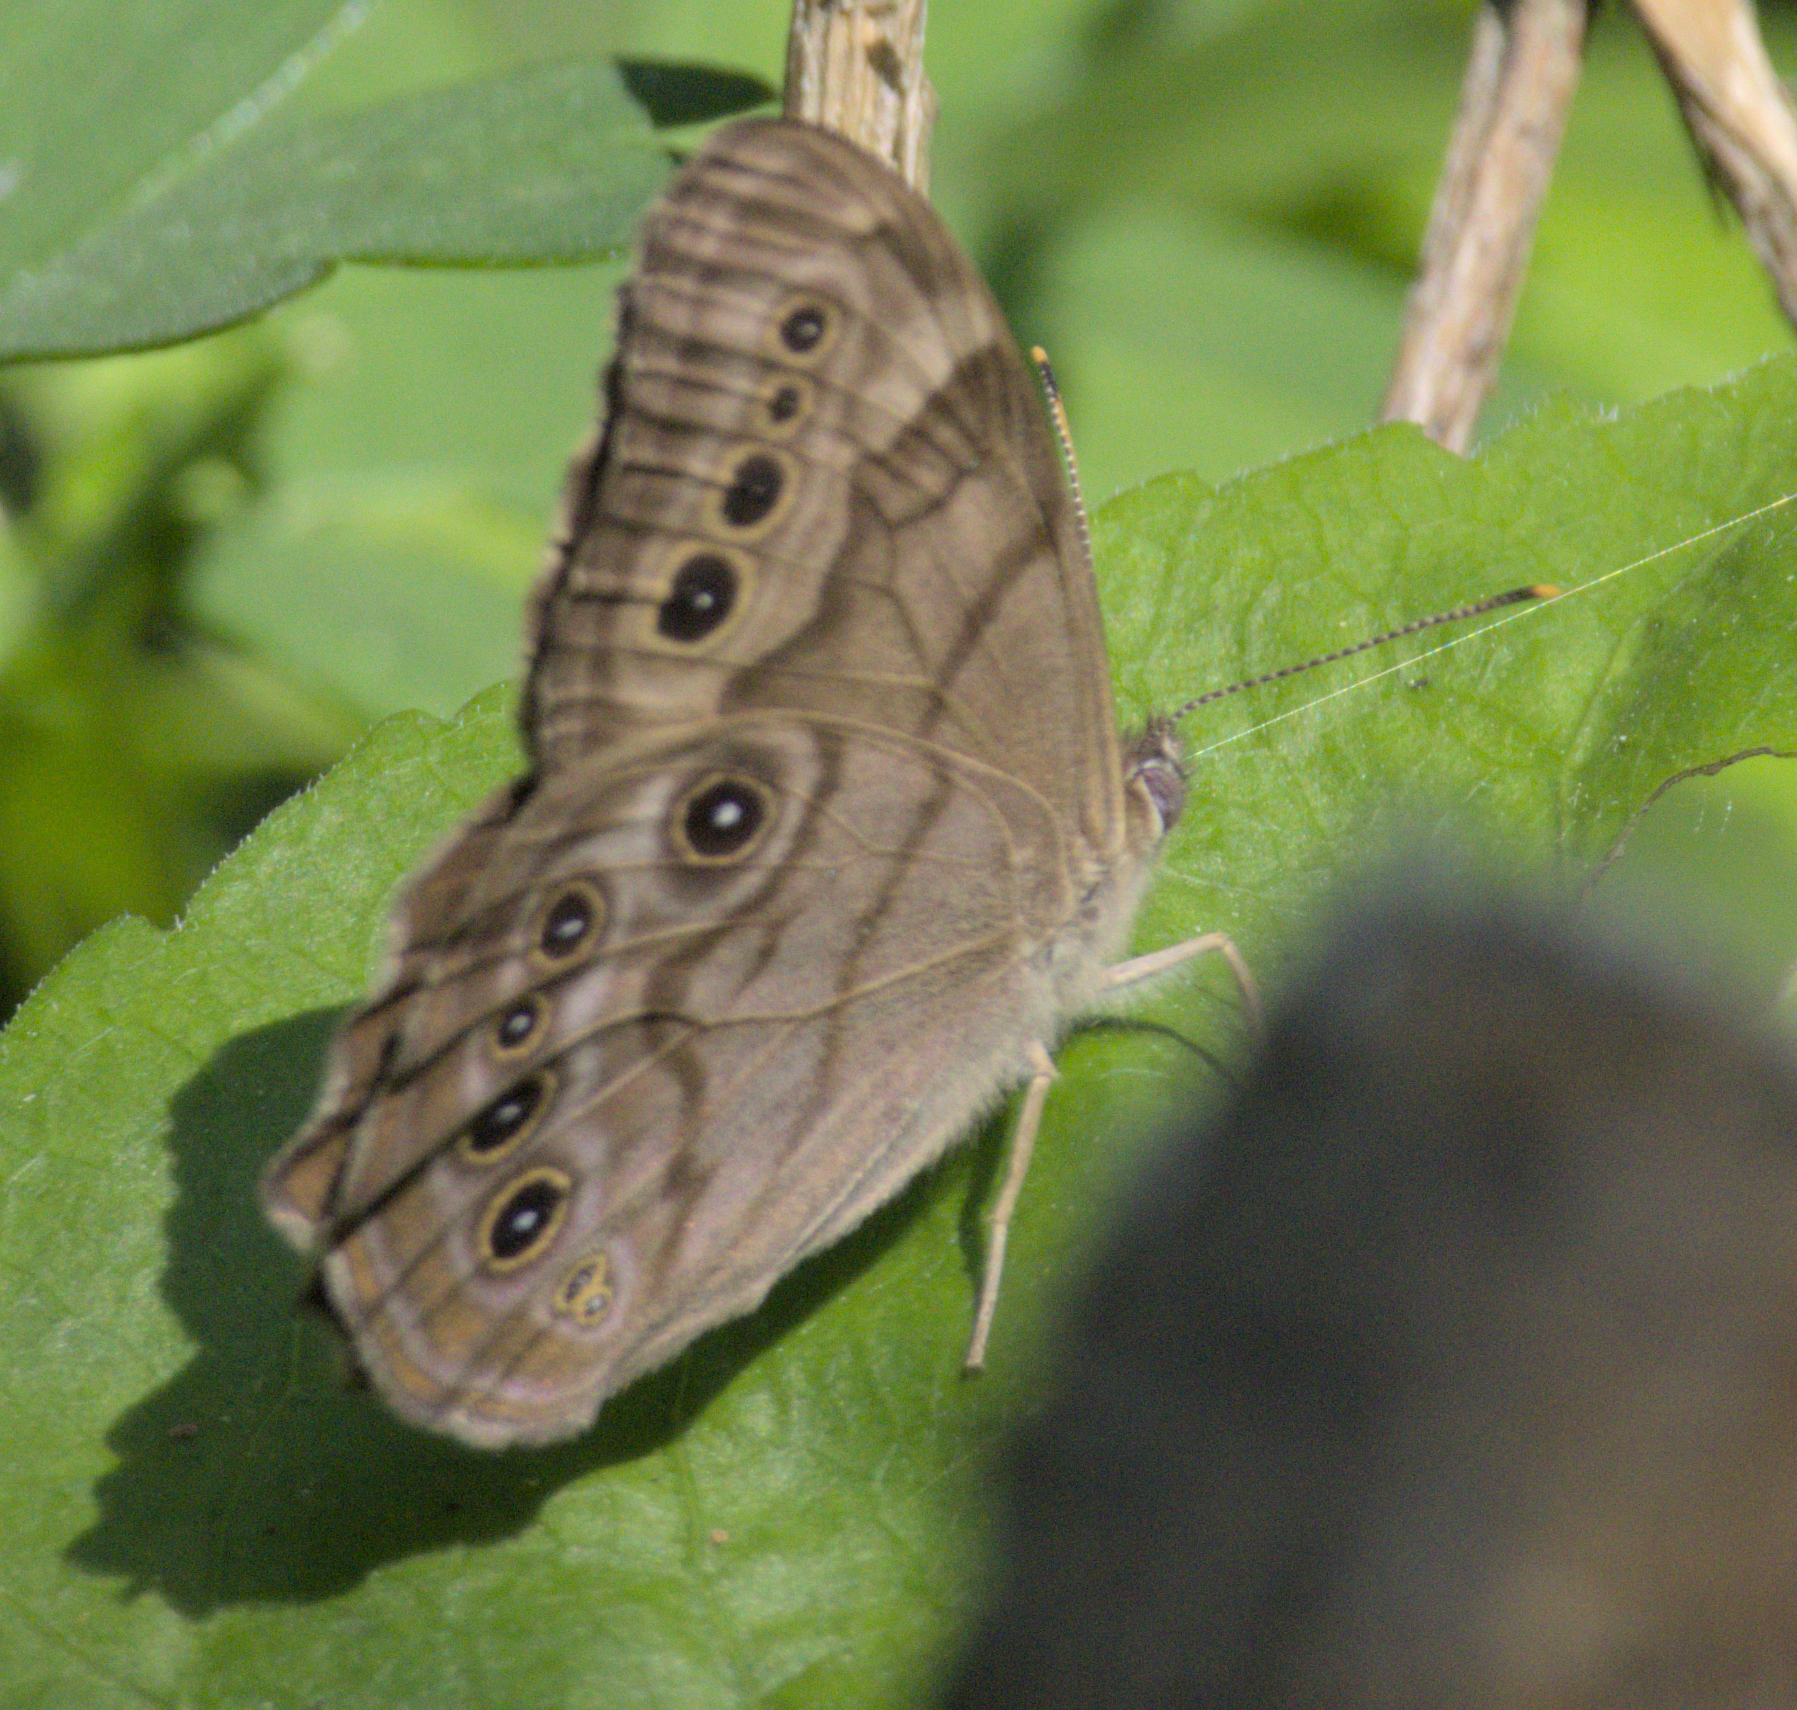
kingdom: Animalia
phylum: Arthropoda
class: Insecta
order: Lepidoptera
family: Nymphalidae
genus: Lethe
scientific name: Lethe anthedon
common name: Northern pearly-eye
